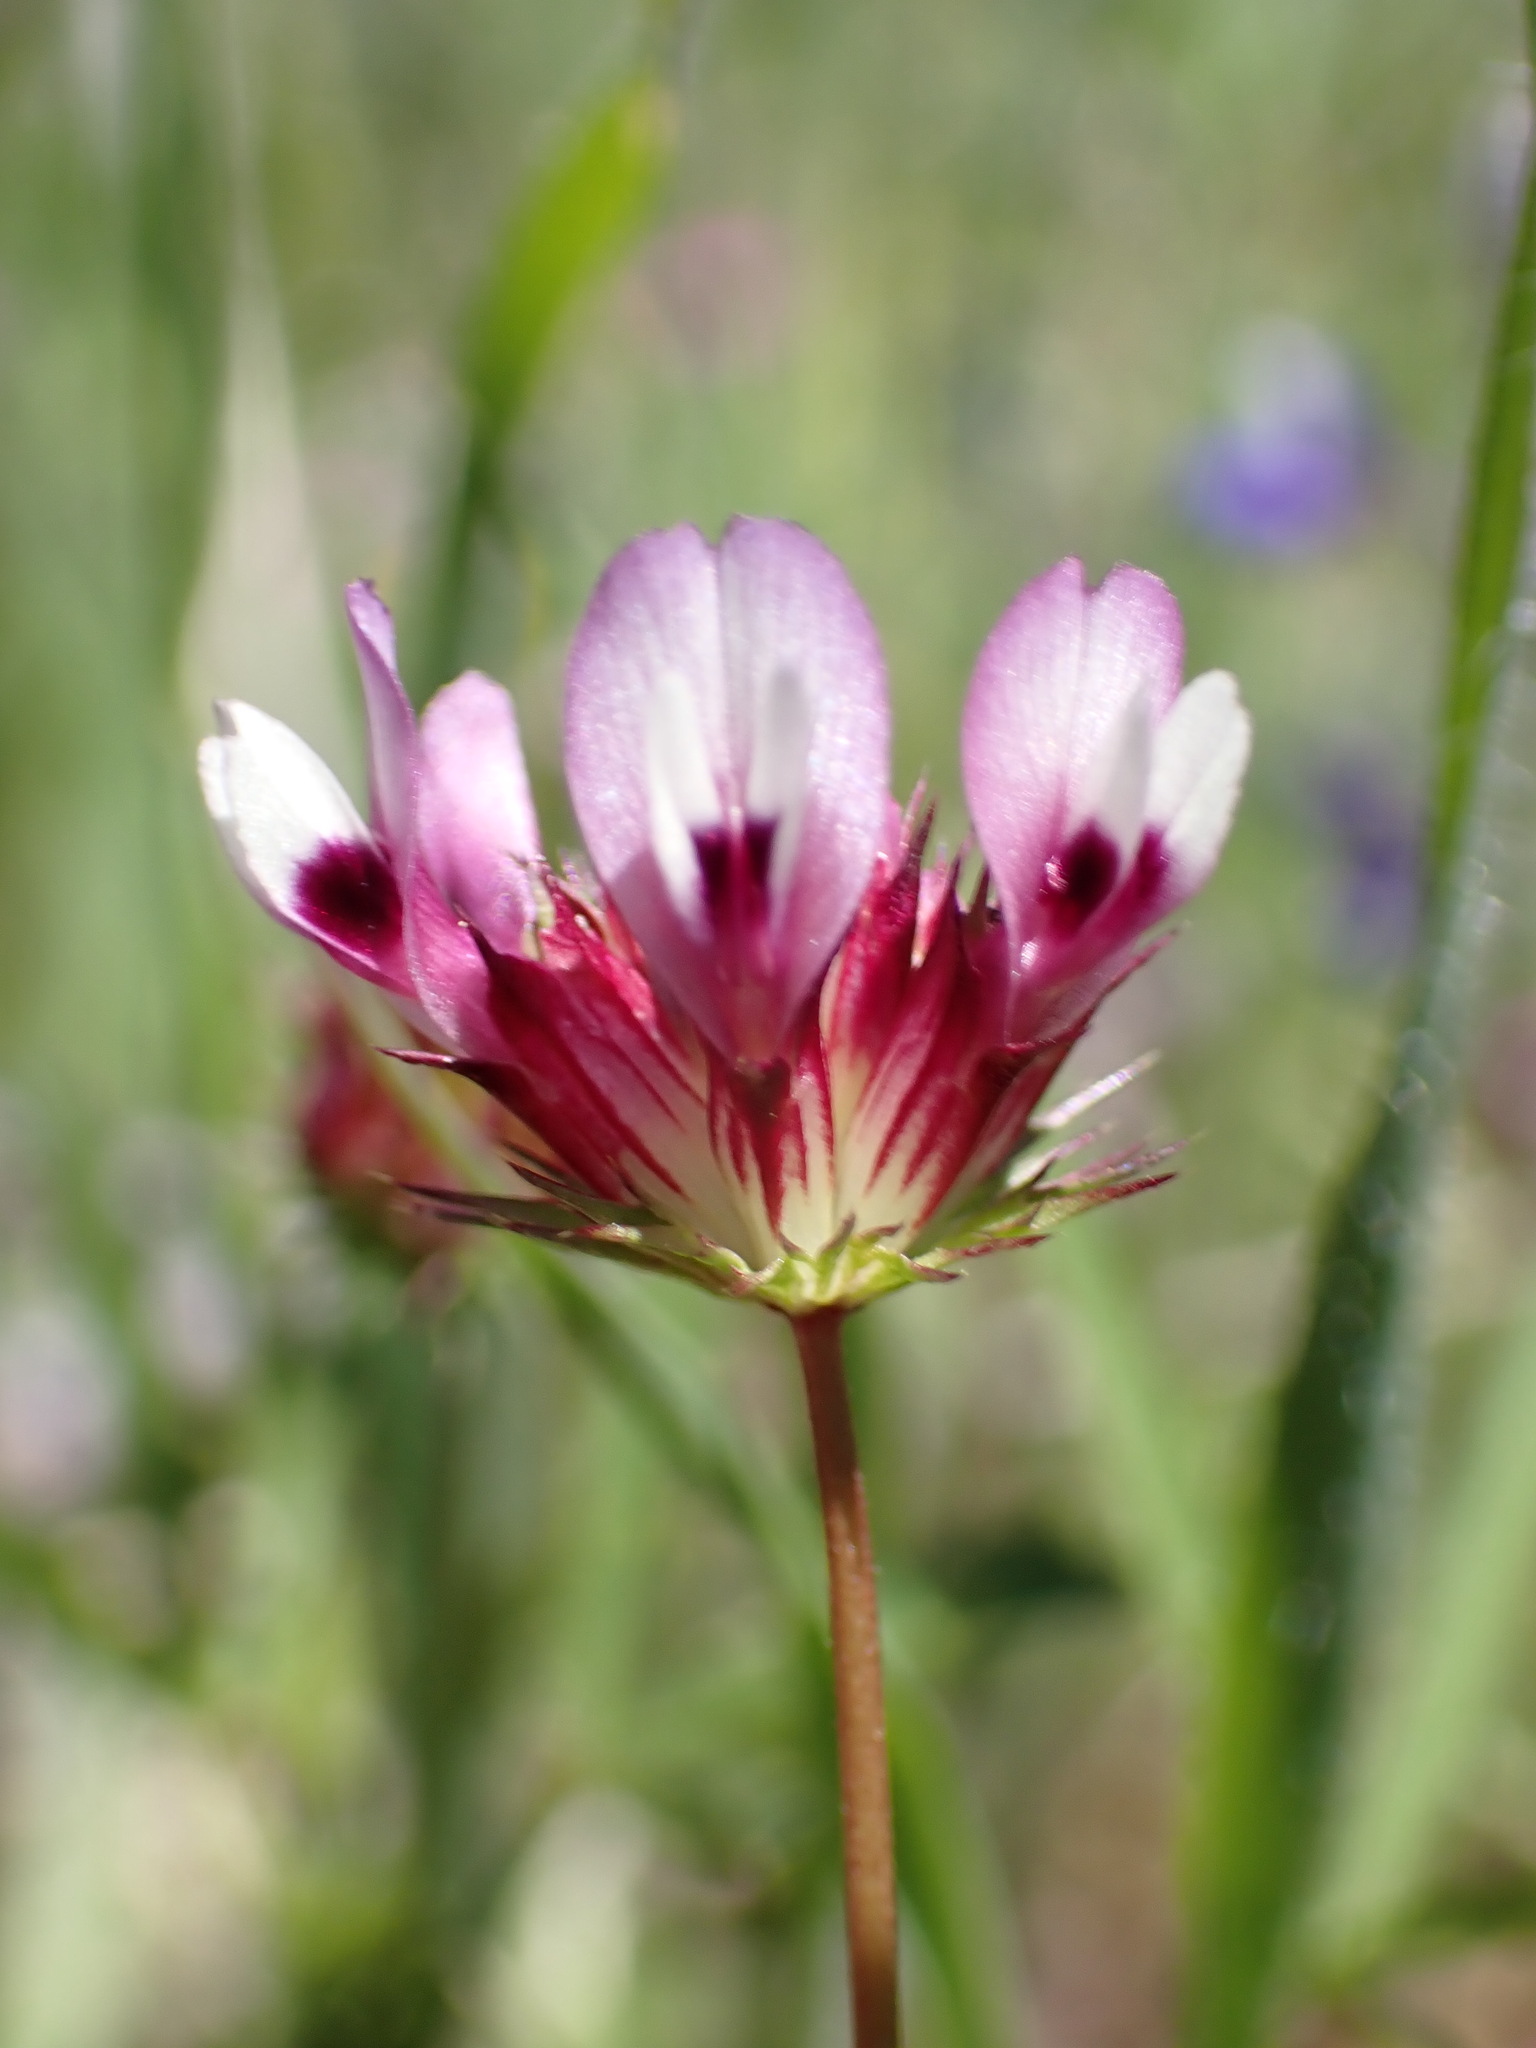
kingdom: Plantae
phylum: Tracheophyta
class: Magnoliopsida
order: Fabales
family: Fabaceae
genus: Trifolium
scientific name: Trifolium willdenovii
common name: Tomcat clover
